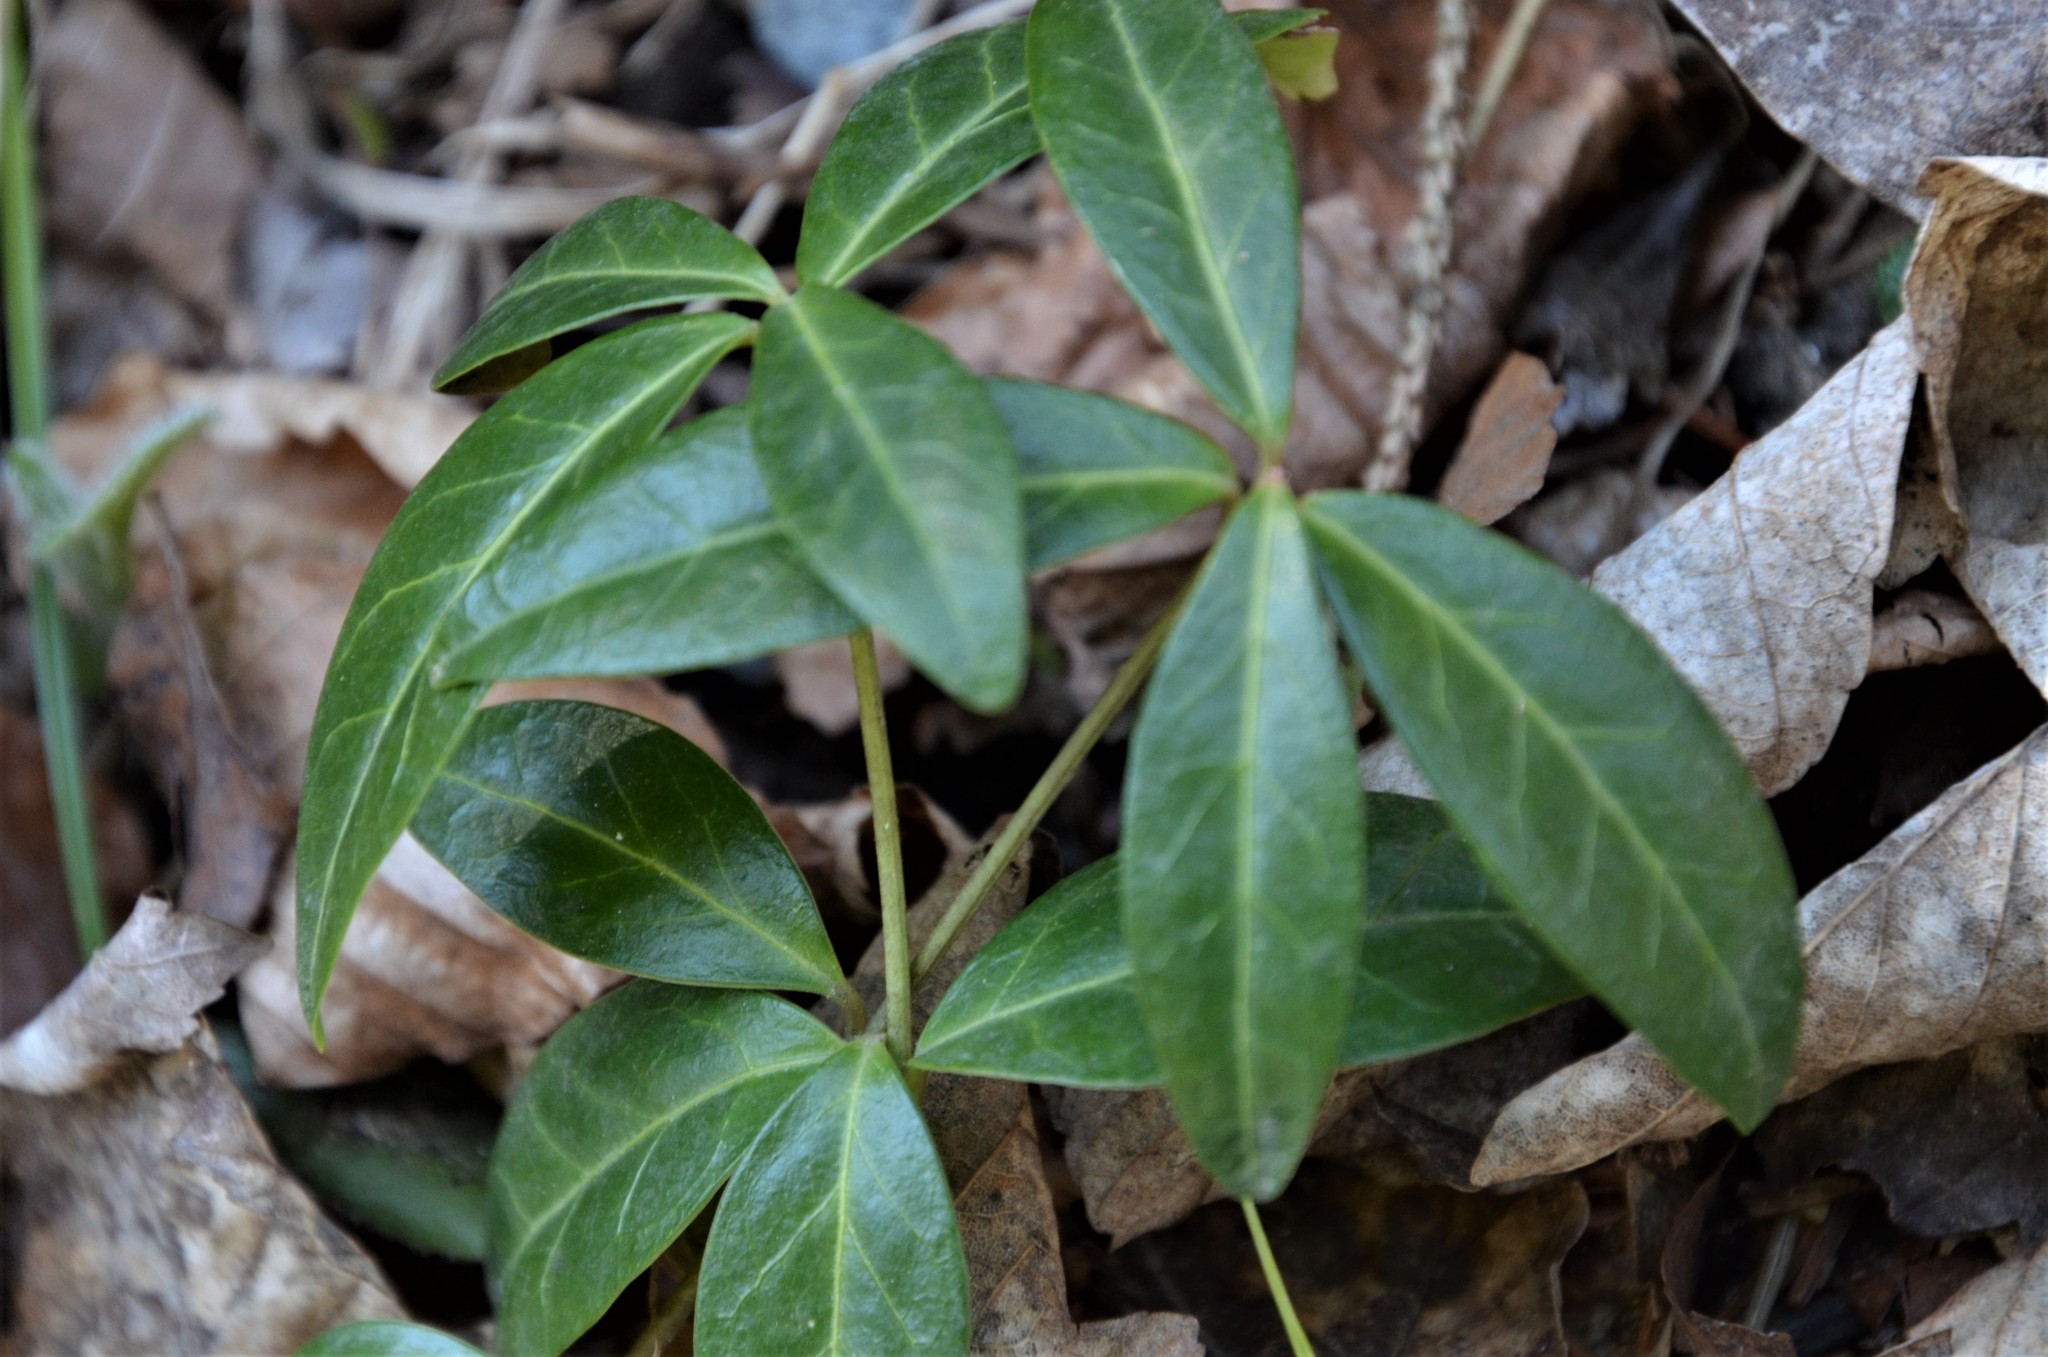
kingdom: Plantae
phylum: Tracheophyta
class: Magnoliopsida
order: Gentianales
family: Apocynaceae
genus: Vinca
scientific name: Vinca minor
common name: Lesser periwinkle
